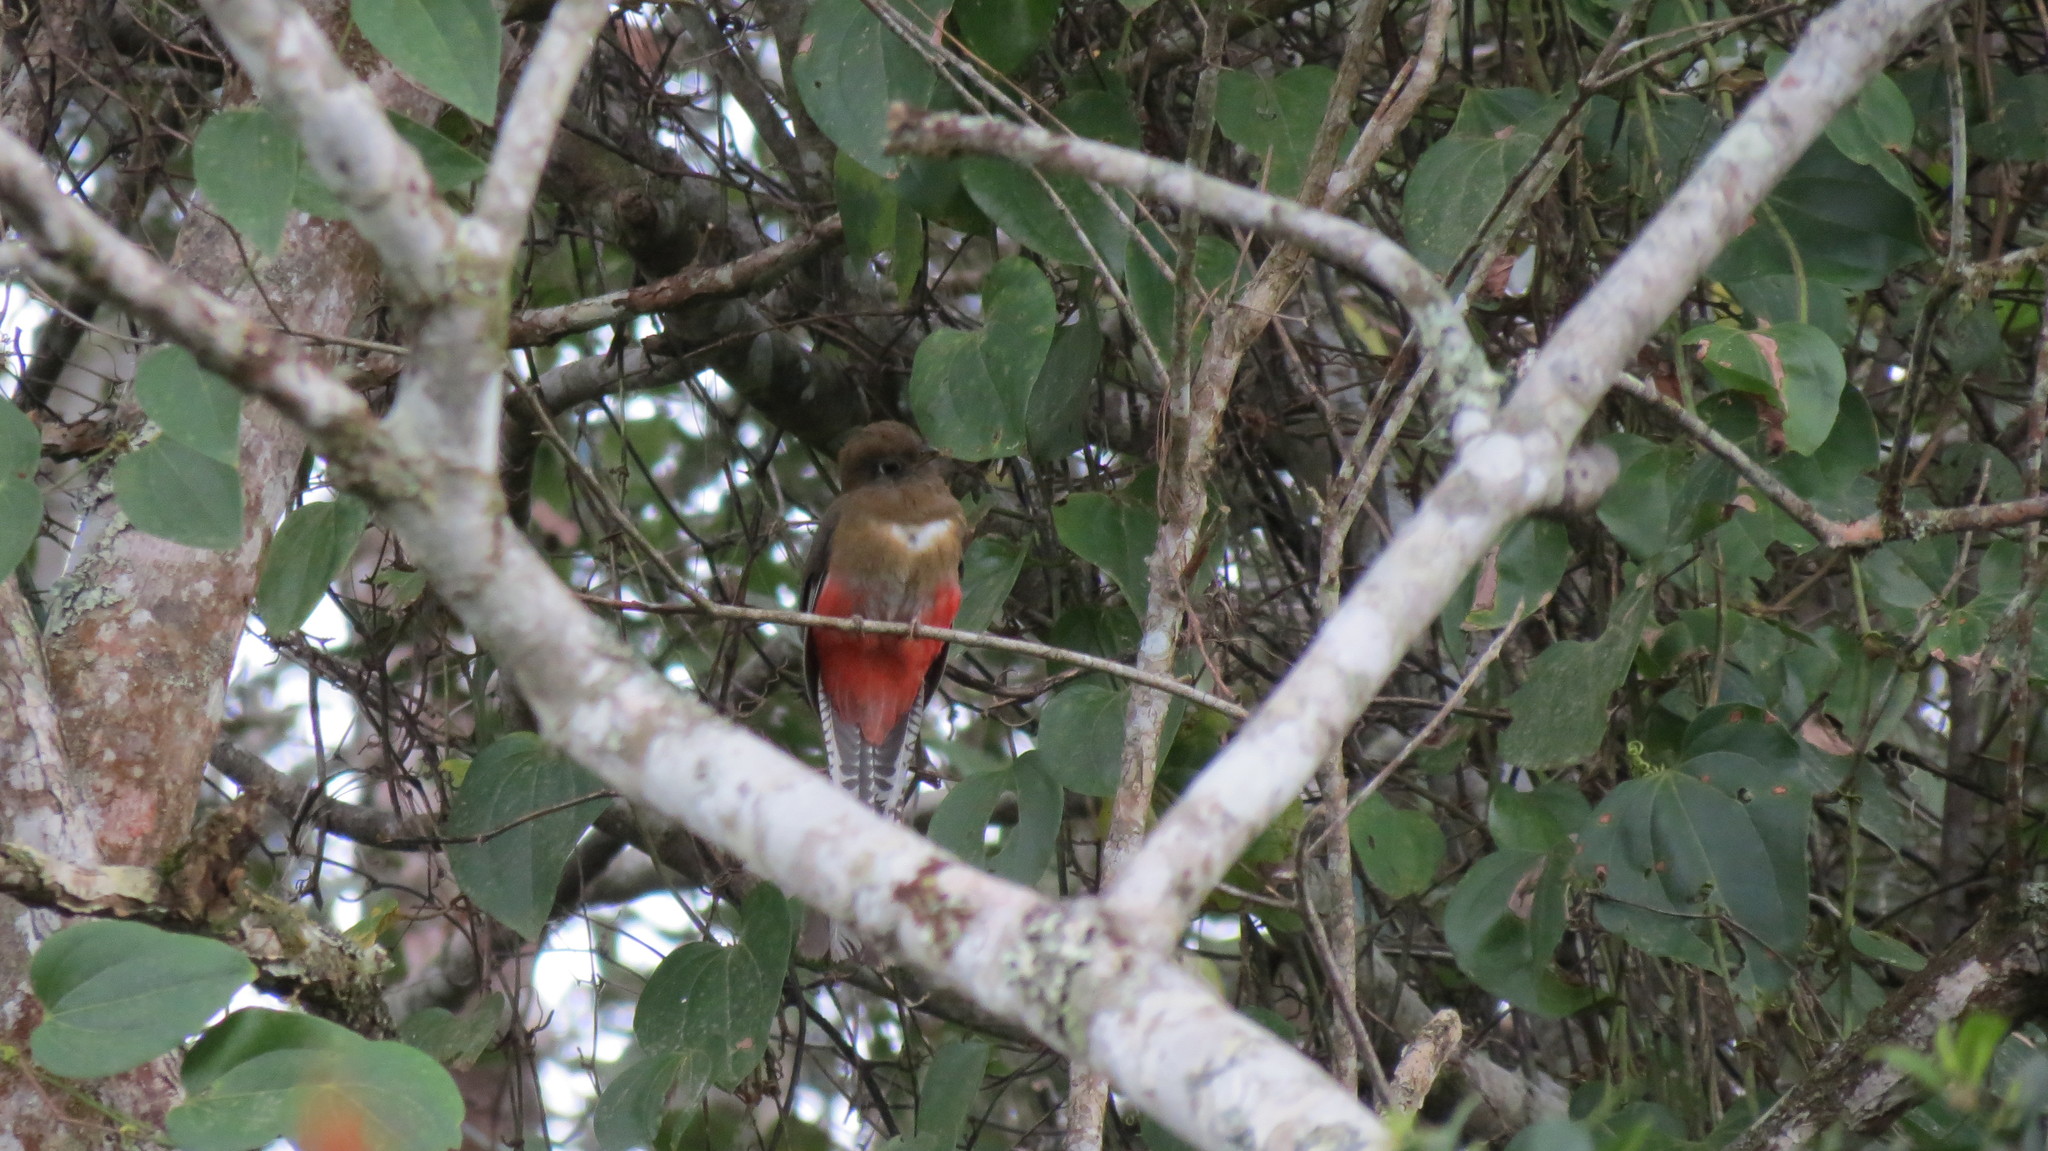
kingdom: Animalia
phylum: Chordata
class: Aves
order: Trogoniformes
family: Trogonidae
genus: Trogon
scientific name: Trogon mexicanus
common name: Mountain trogon
